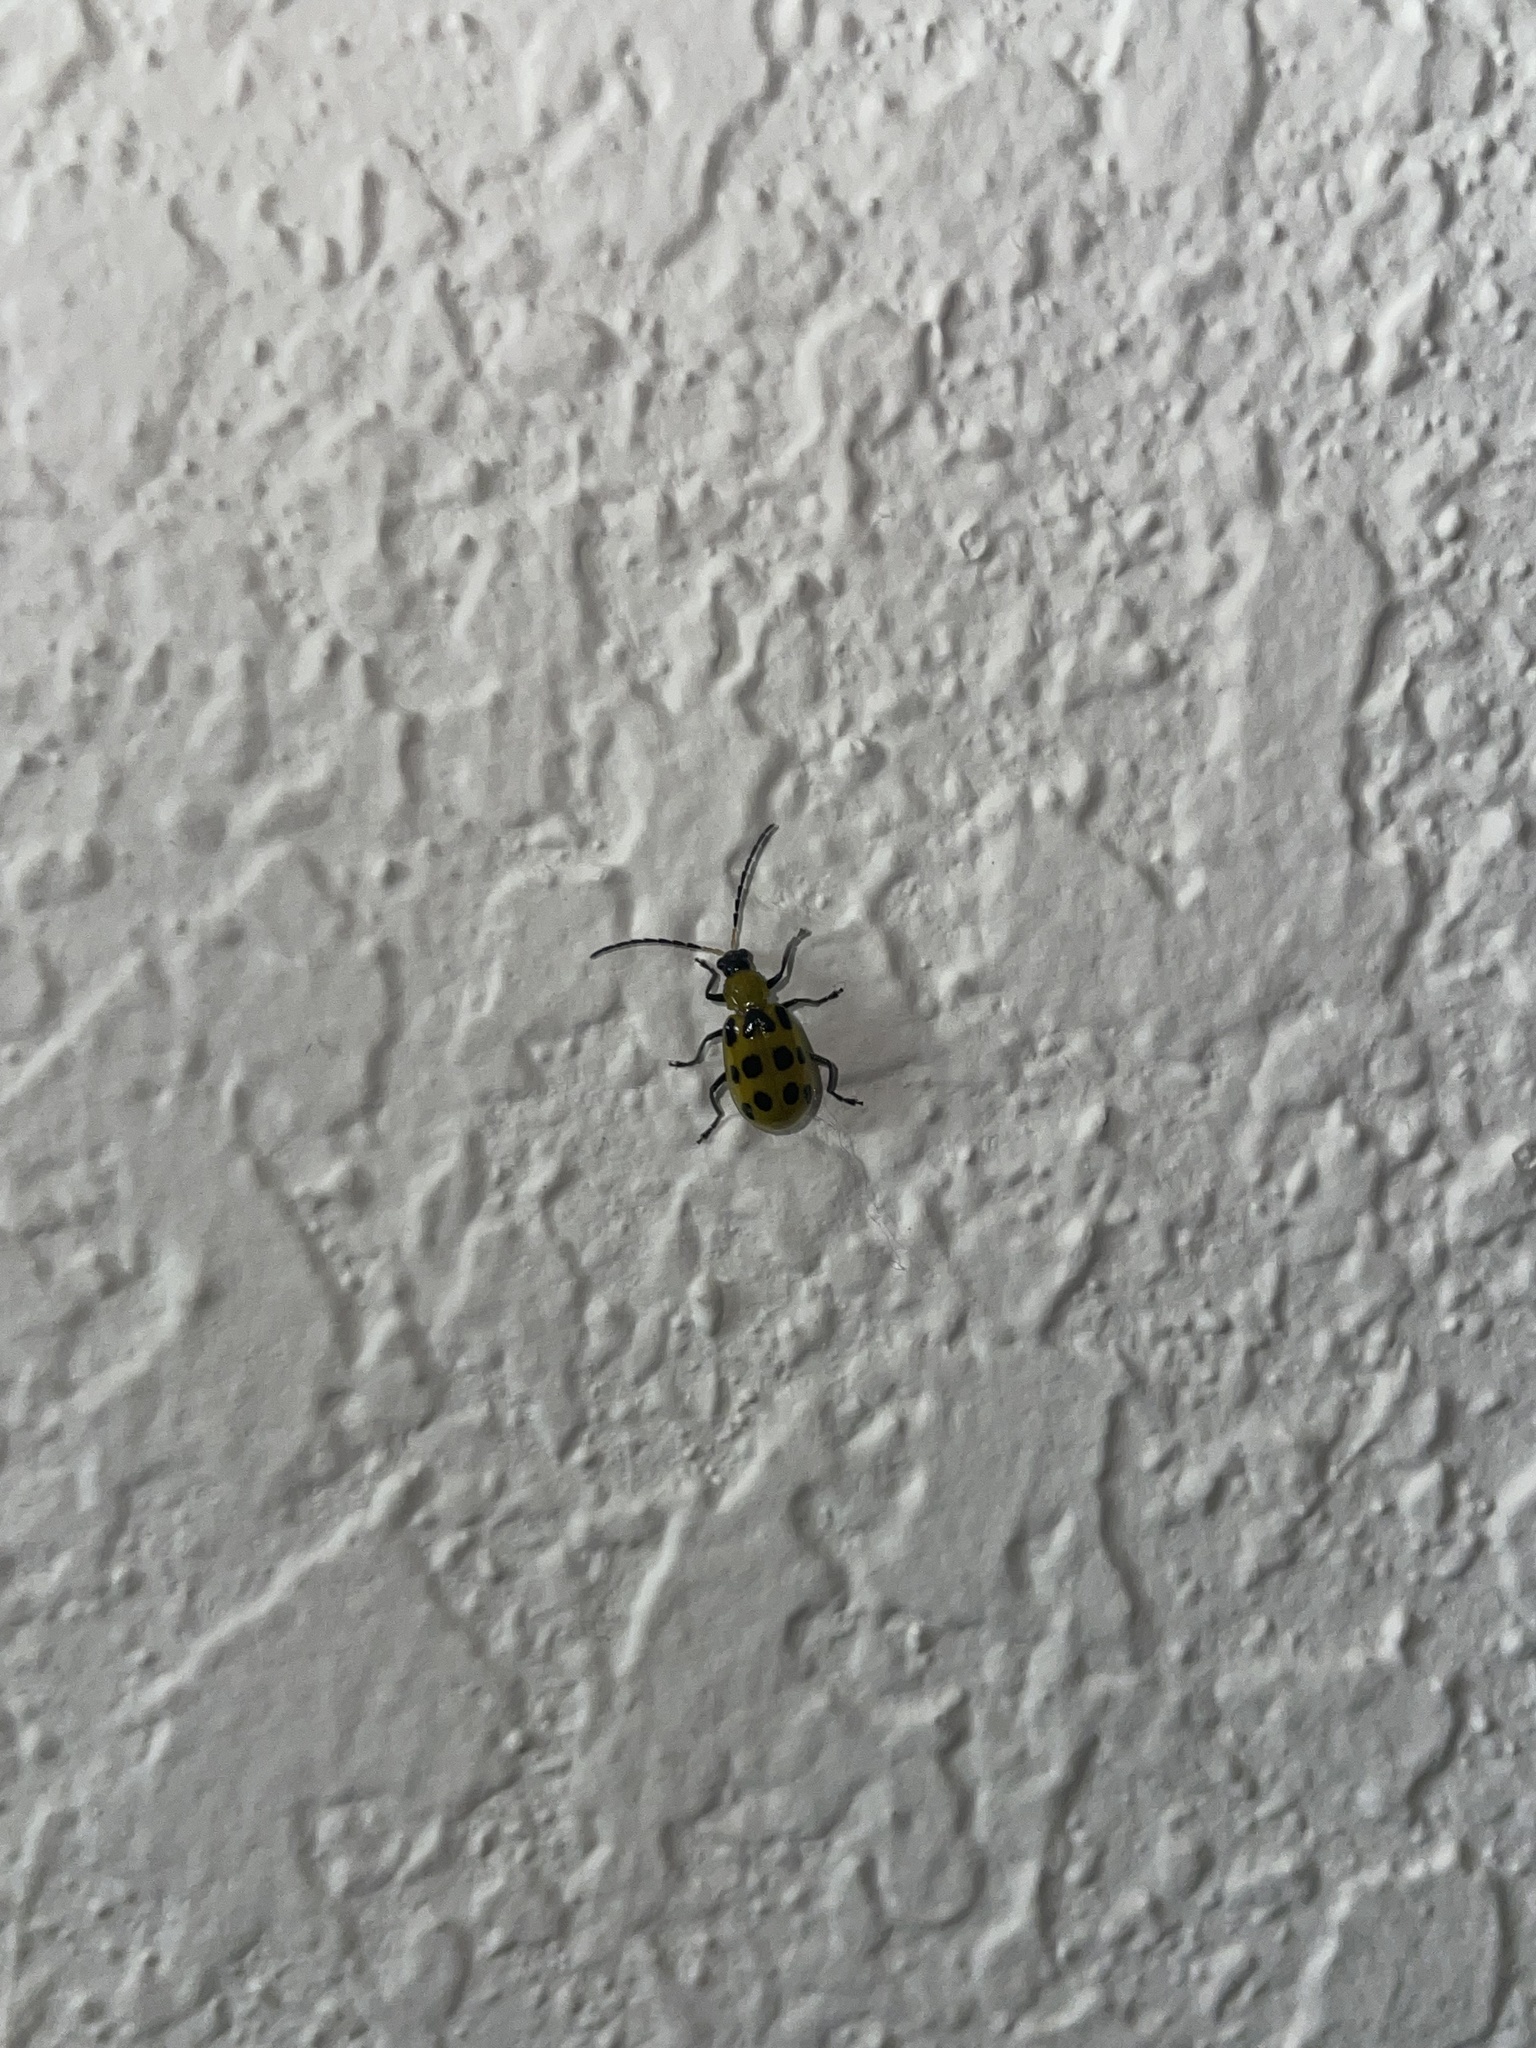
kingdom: Animalia
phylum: Arthropoda
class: Insecta
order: Coleoptera
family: Chrysomelidae
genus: Diabrotica
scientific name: Diabrotica undecimpunctata
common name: Spotted cucumber beetle
